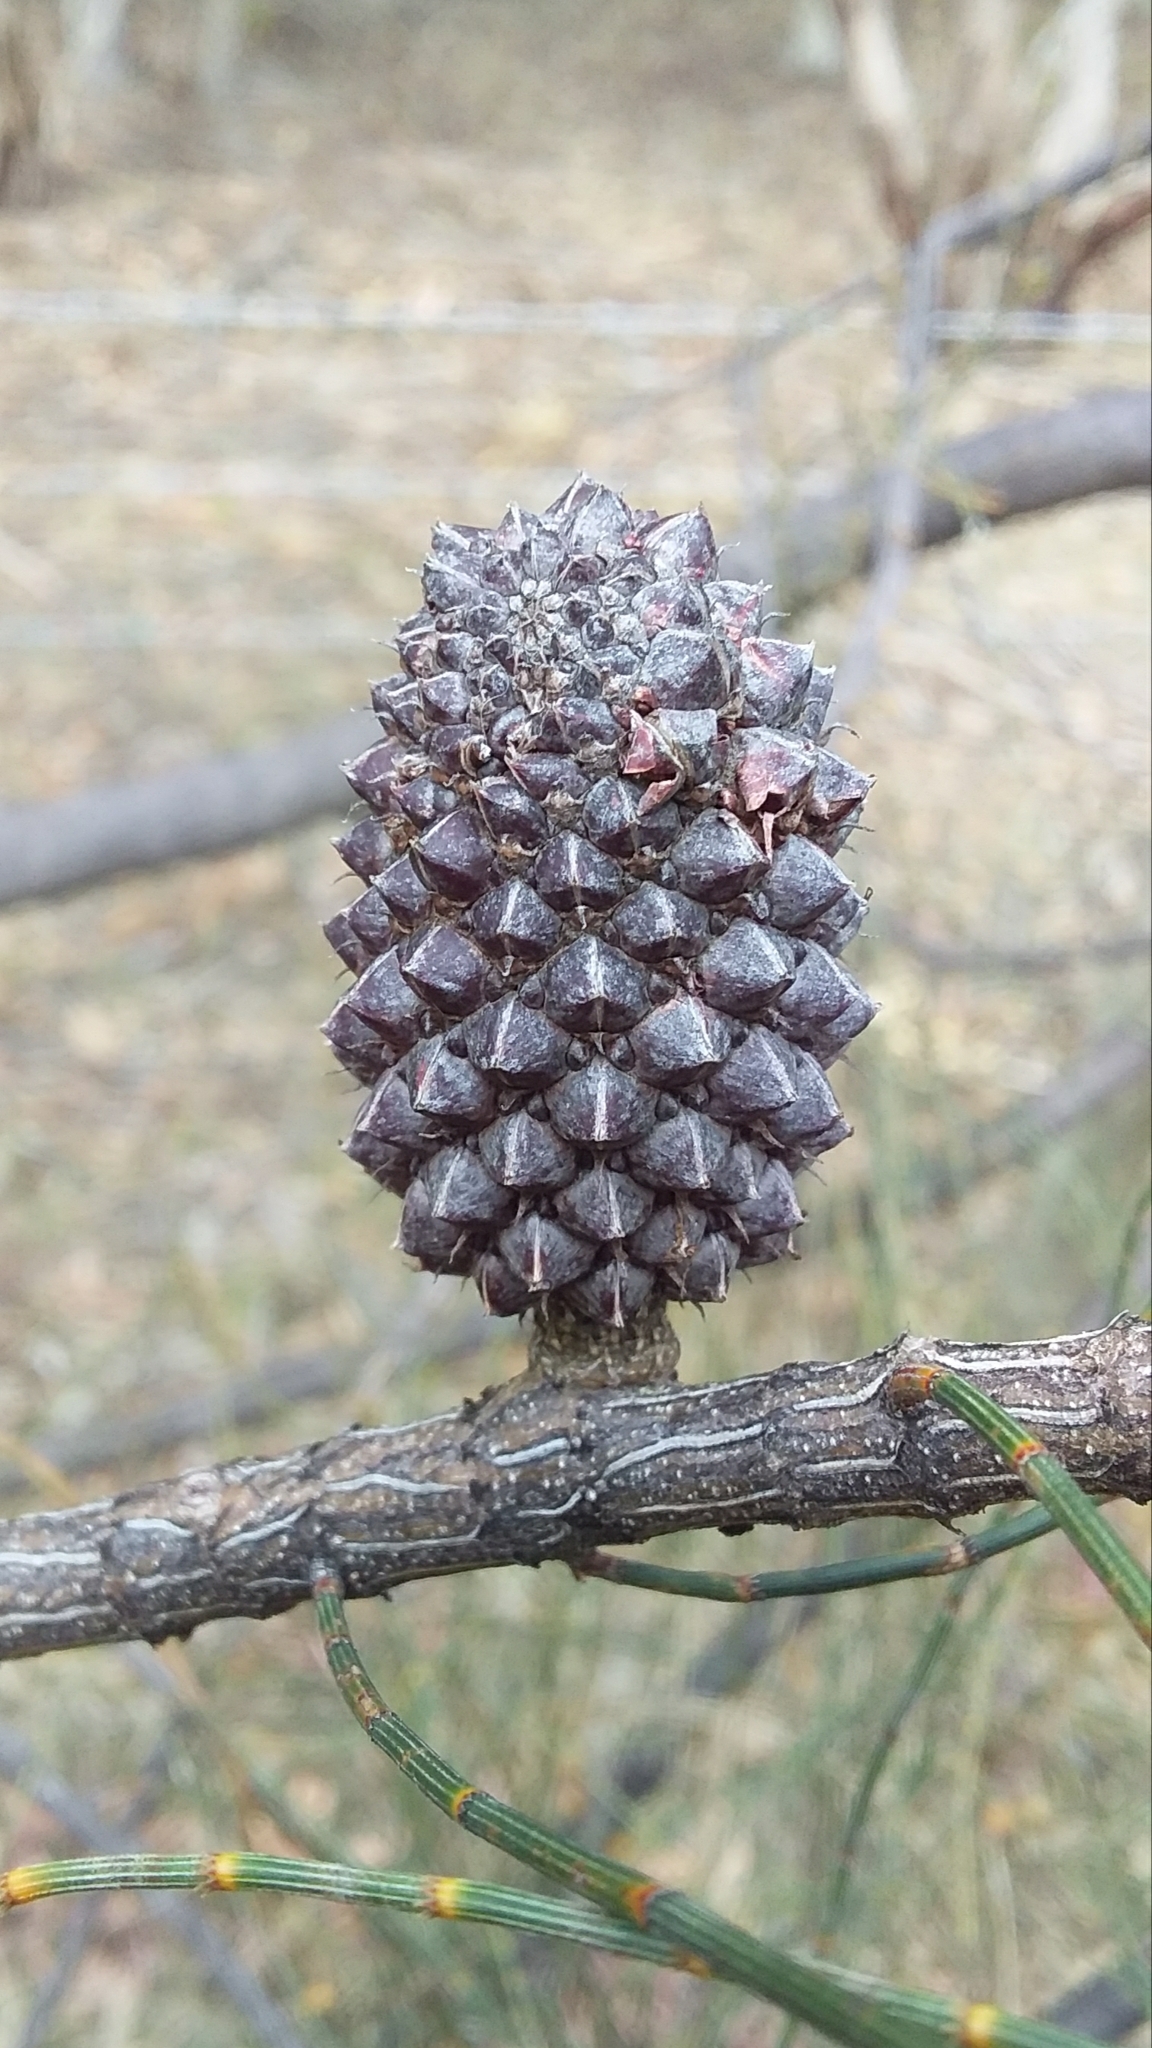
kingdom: Plantae
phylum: Tracheophyta
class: Magnoliopsida
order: Fagales
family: Casuarinaceae
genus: Allocasuarina
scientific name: Allocasuarina verticillata
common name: Drooping she-oak
